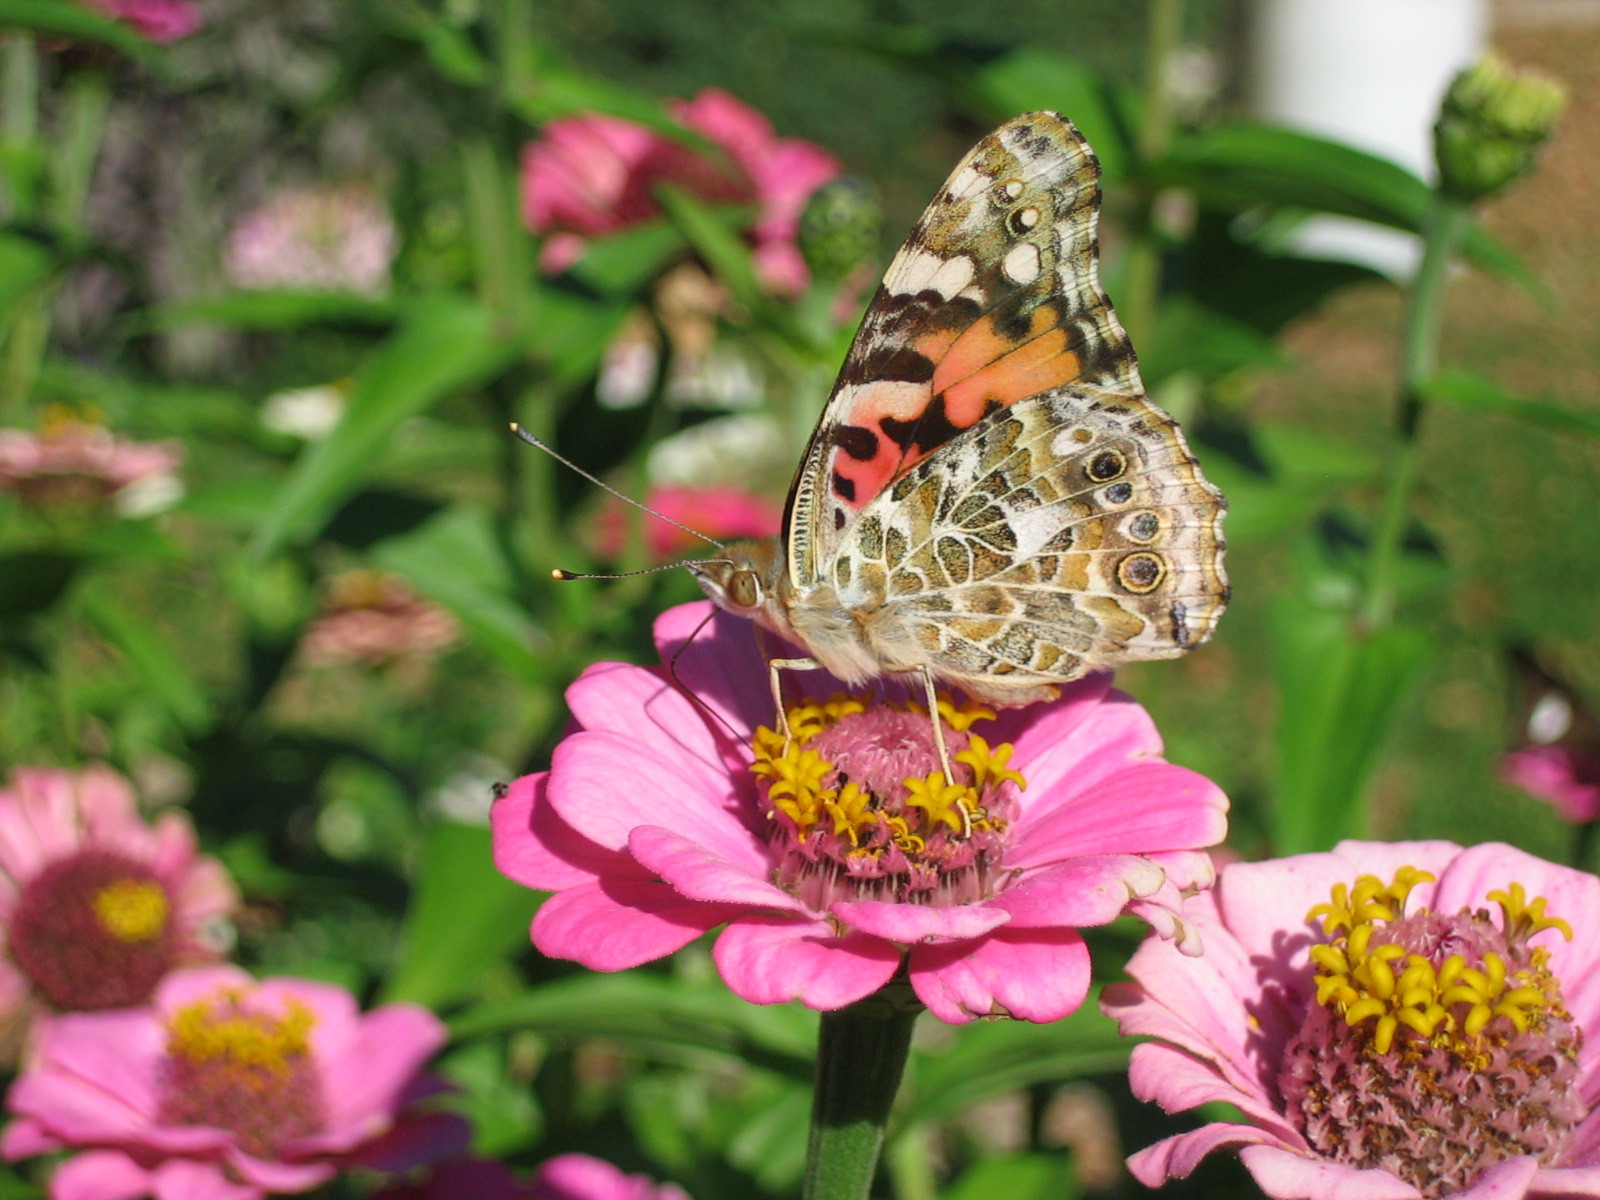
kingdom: Animalia
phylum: Arthropoda
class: Insecta
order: Lepidoptera
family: Nymphalidae
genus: Vanessa
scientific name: Vanessa cardui
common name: Painted lady
